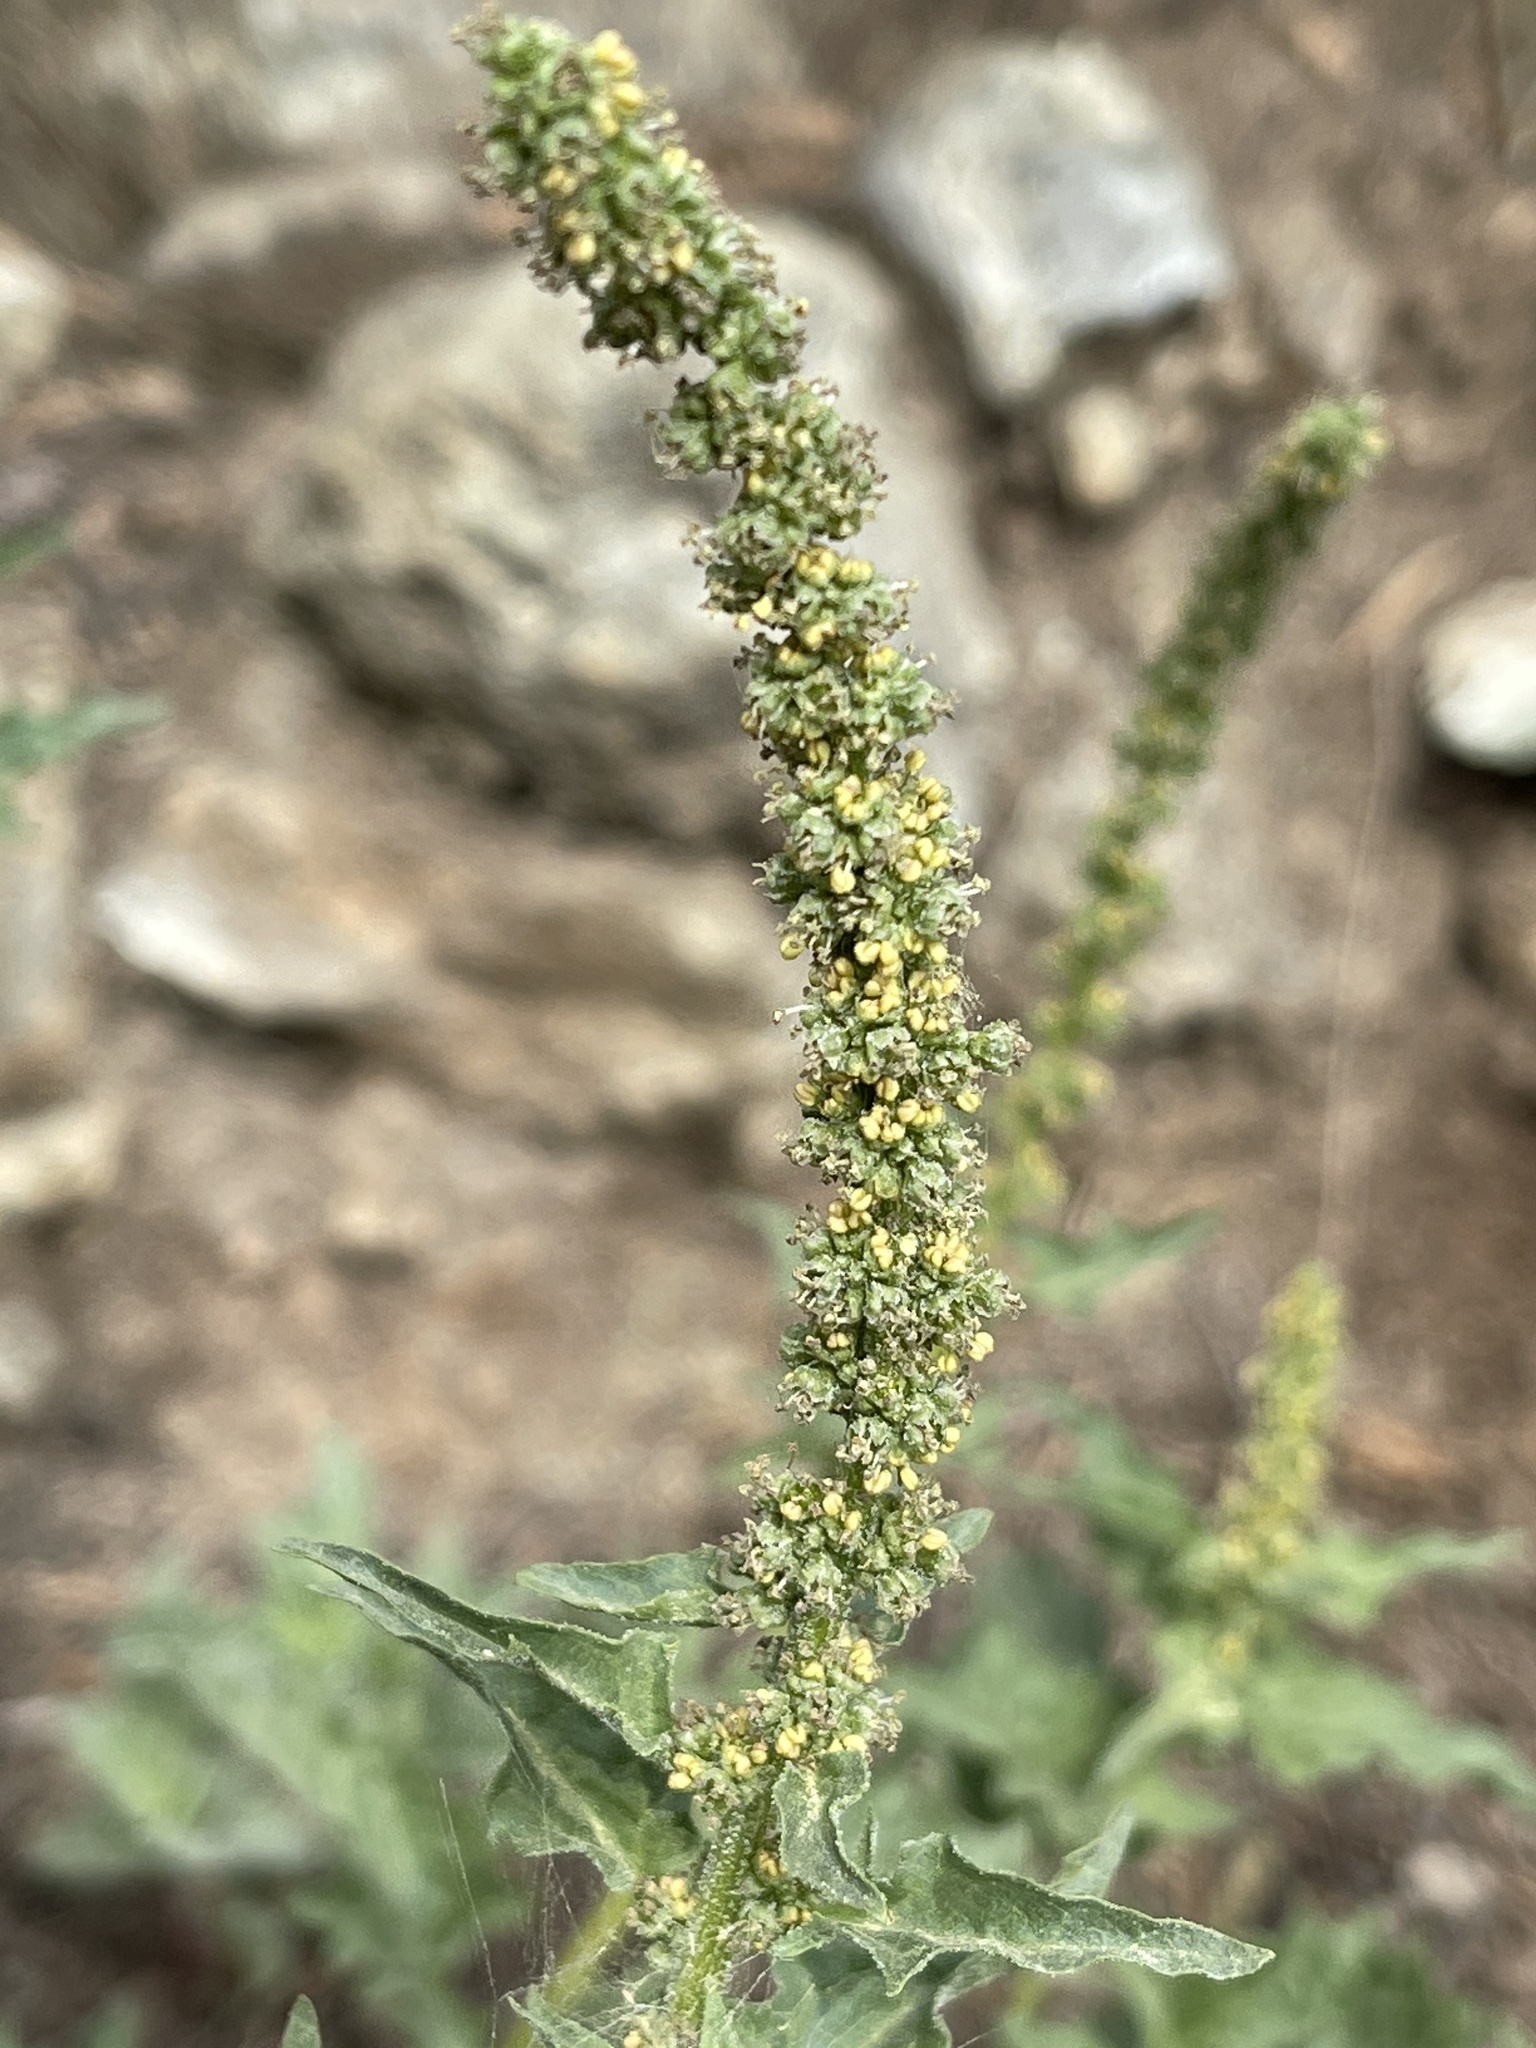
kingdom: Plantae
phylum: Tracheophyta
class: Magnoliopsida
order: Caryophyllales
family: Amaranthaceae
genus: Blitum
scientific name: Blitum californicum
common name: California goosefoot
